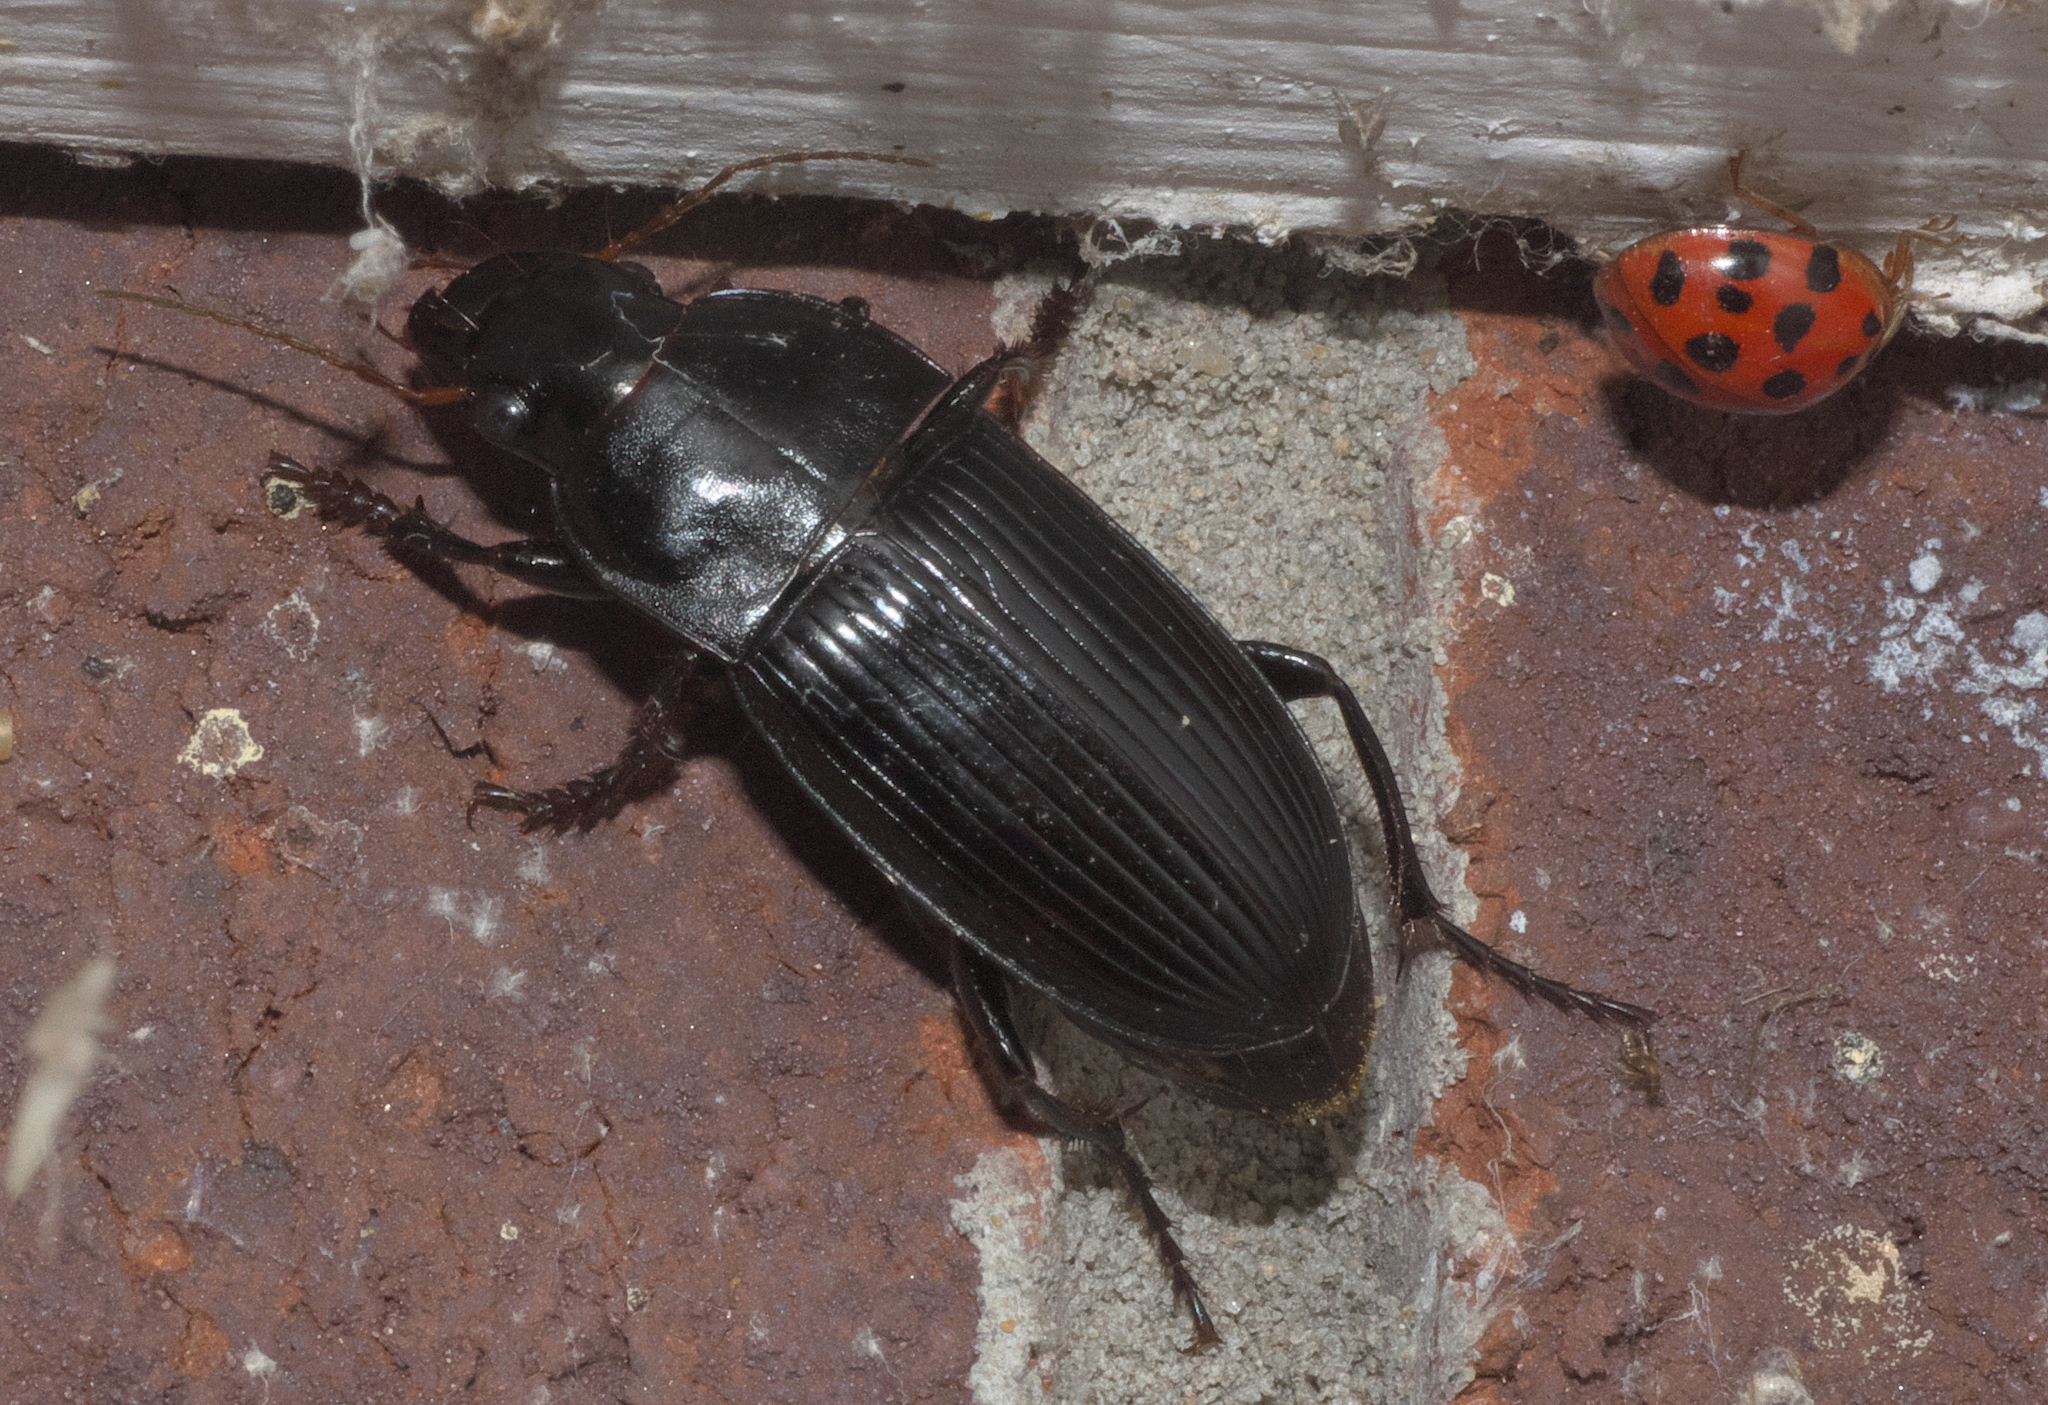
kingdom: Animalia
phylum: Arthropoda
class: Insecta
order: Coleoptera
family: Carabidae
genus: Harpalus
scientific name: Harpalus caliginosus
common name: Murky ground beetle
